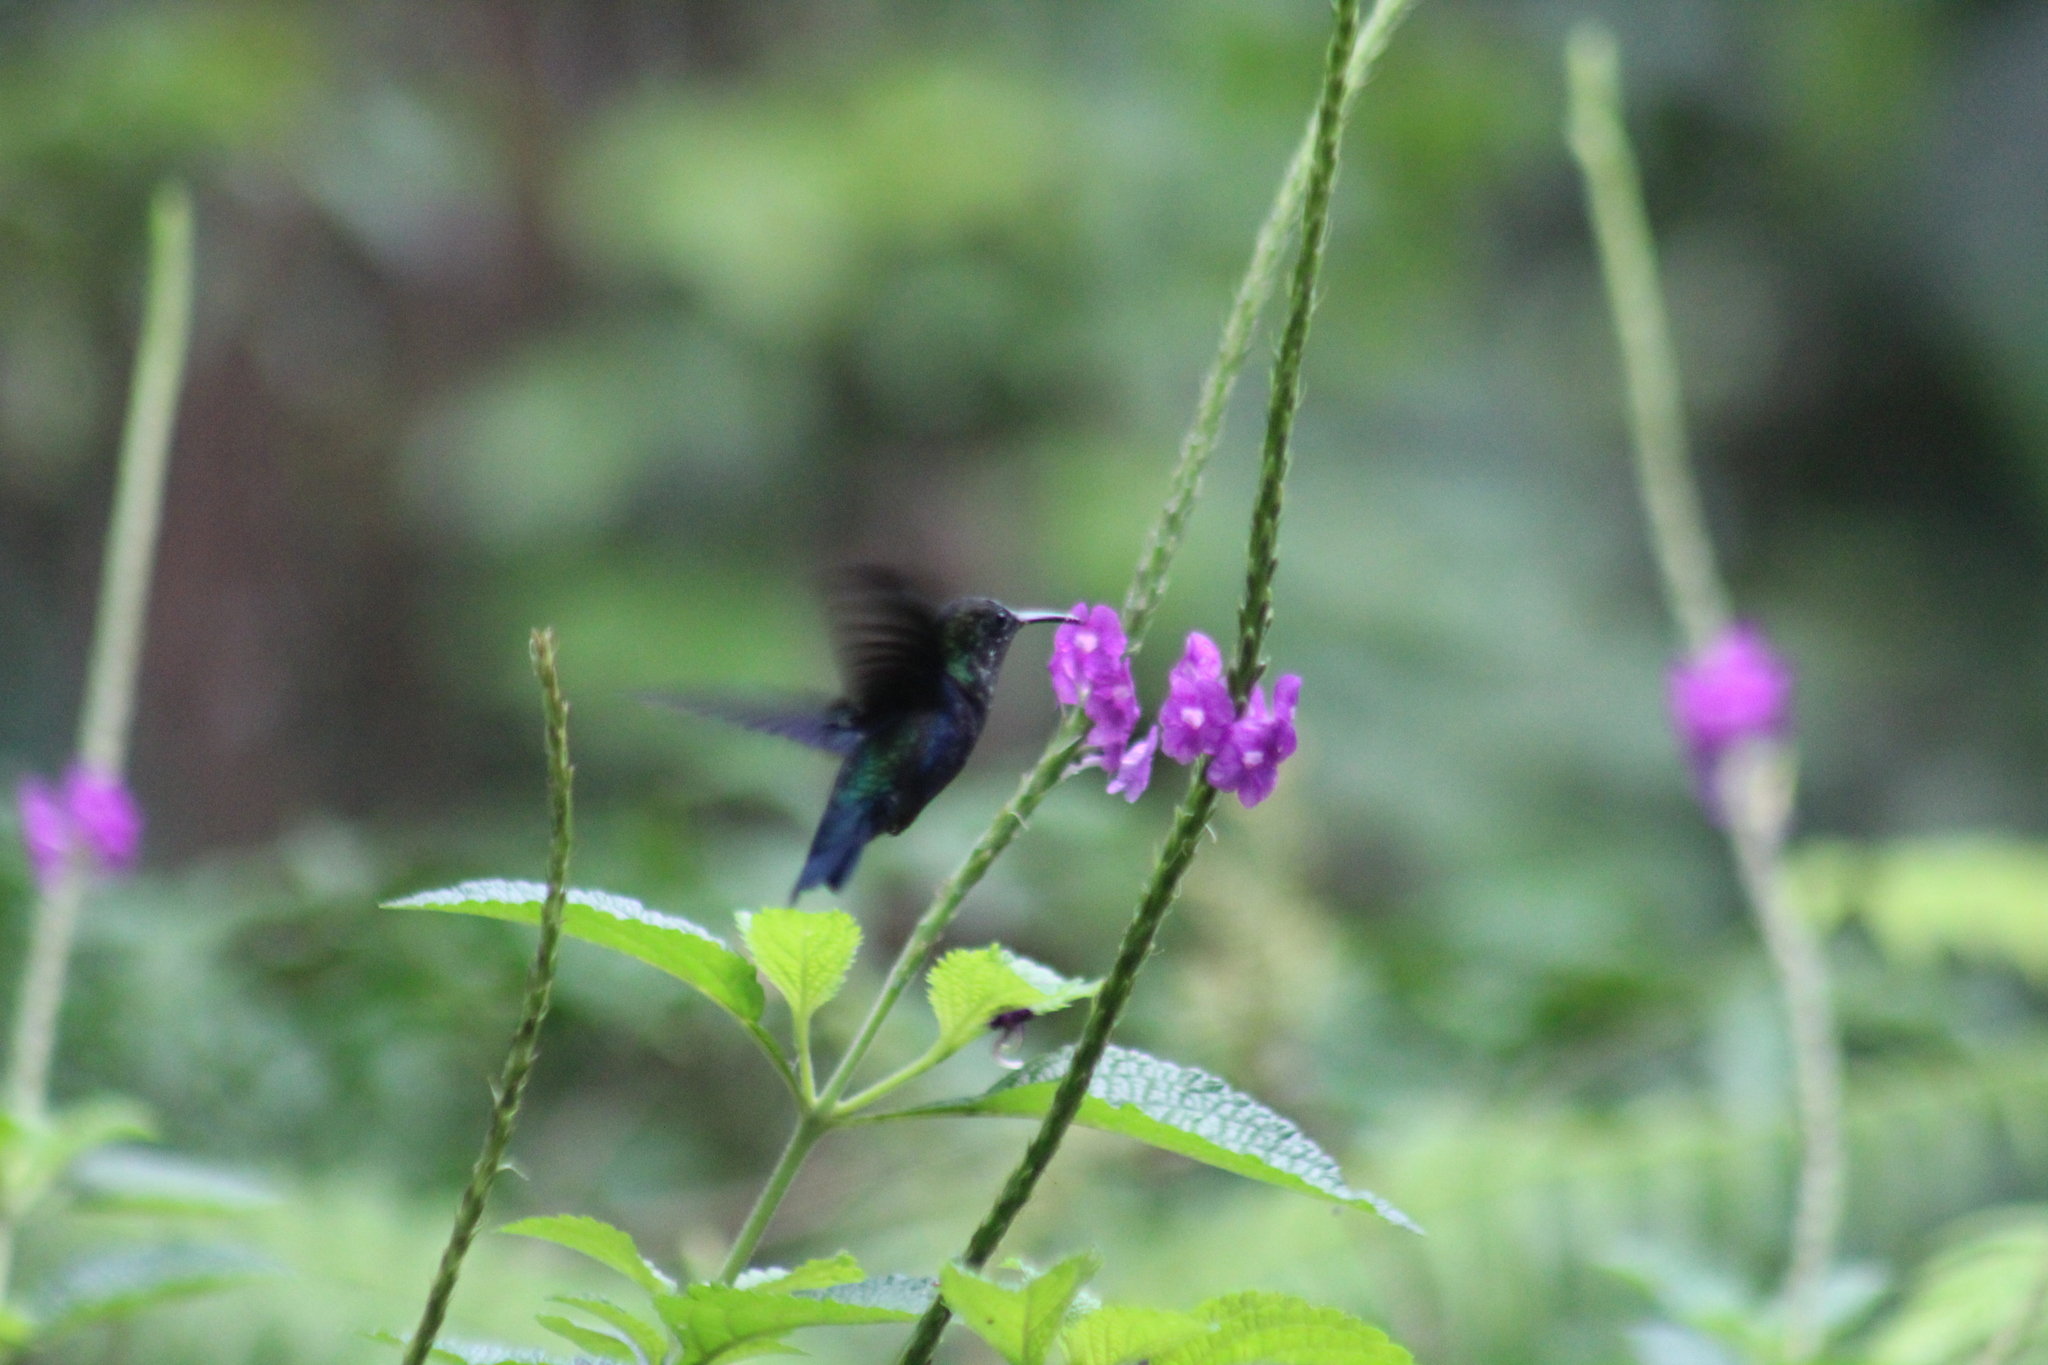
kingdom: Animalia
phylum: Chordata
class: Aves
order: Apodiformes
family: Trochilidae
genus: Thalurania
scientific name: Thalurania furcata
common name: Fork-tailed woodnymph
